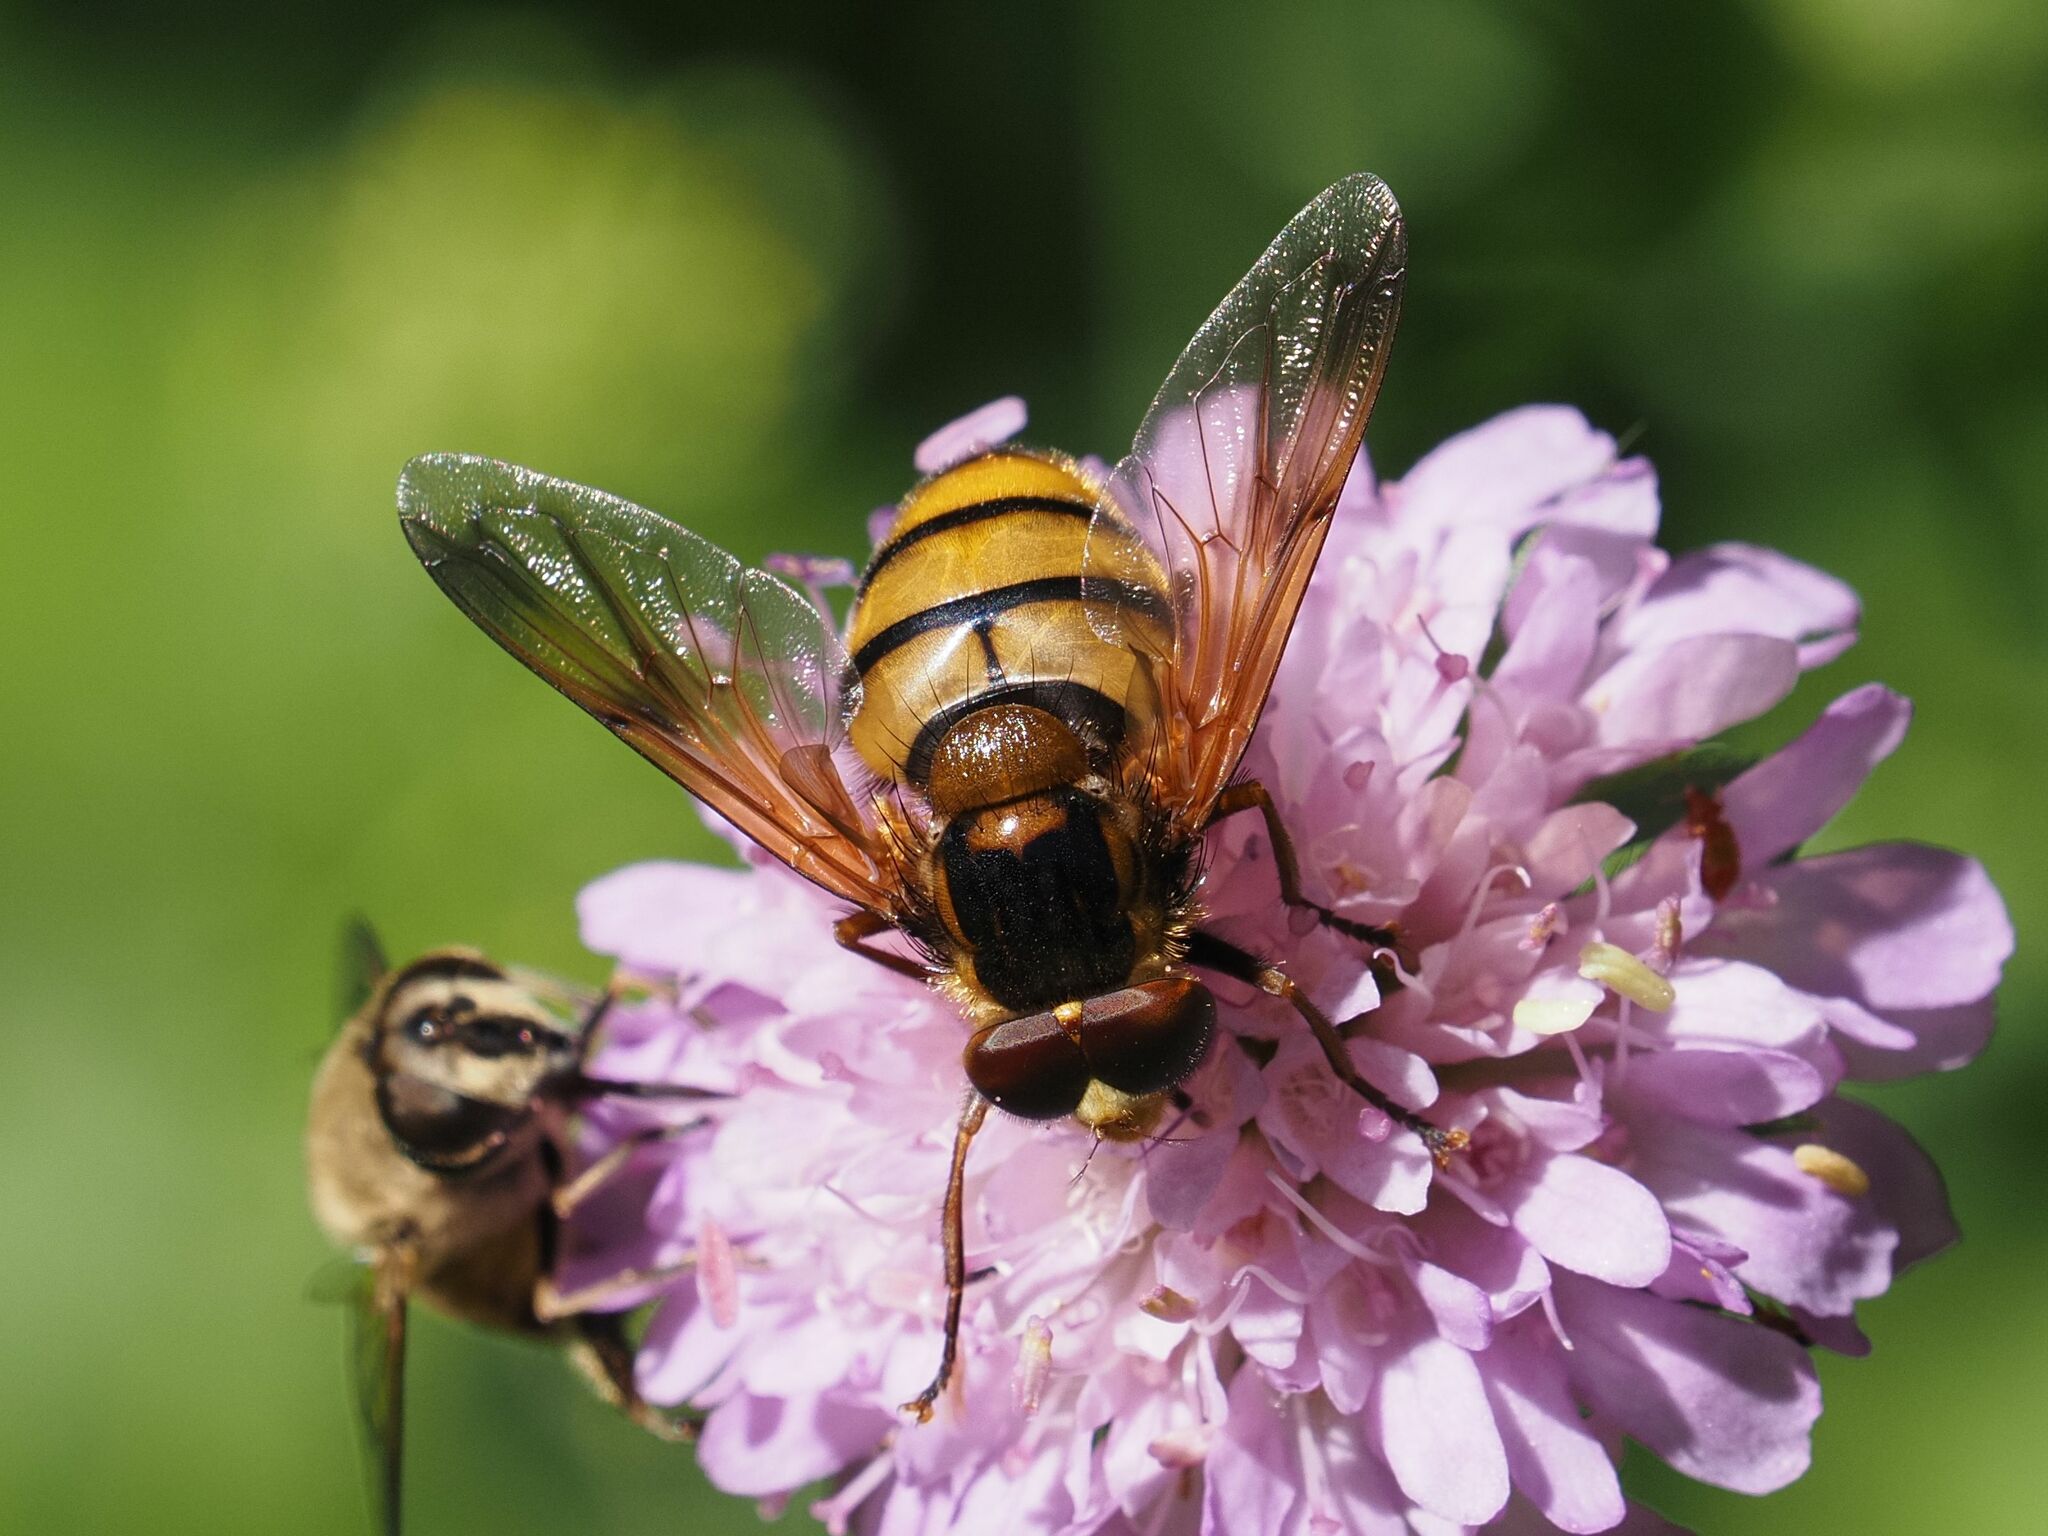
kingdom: Animalia
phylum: Arthropoda
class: Insecta
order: Diptera
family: Syrphidae
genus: Volucella
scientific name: Volucella inanis
